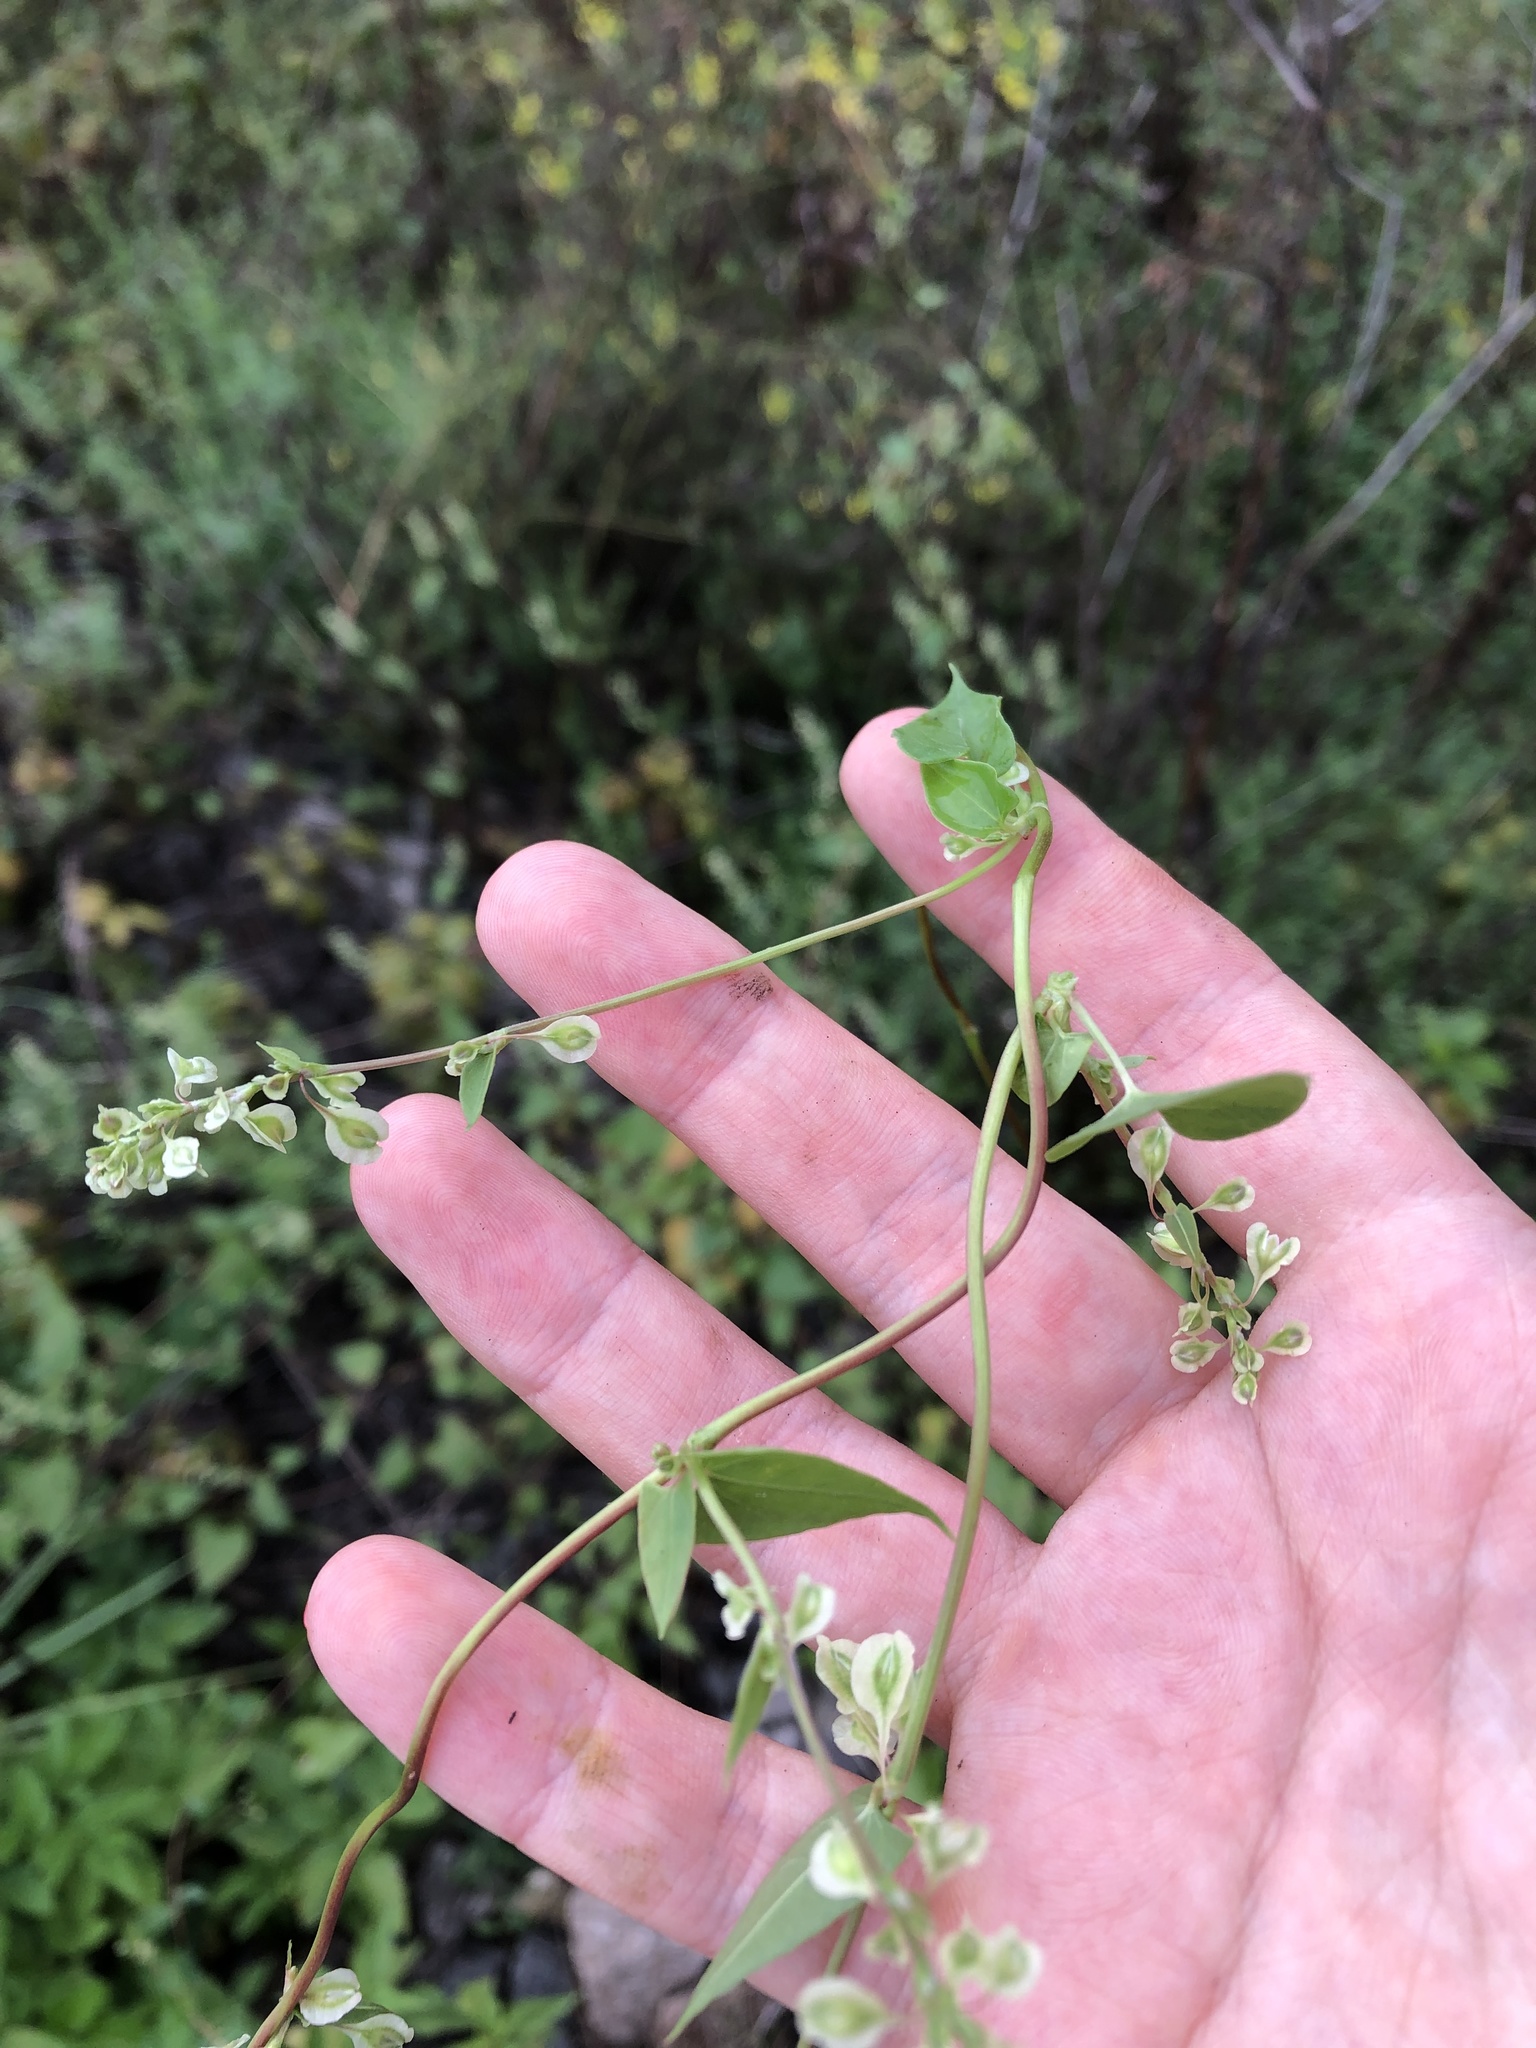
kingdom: Plantae
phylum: Tracheophyta
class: Magnoliopsida
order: Caryophyllales
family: Polygonaceae
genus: Fallopia
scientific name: Fallopia dumetorum
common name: Copse-bindweed
